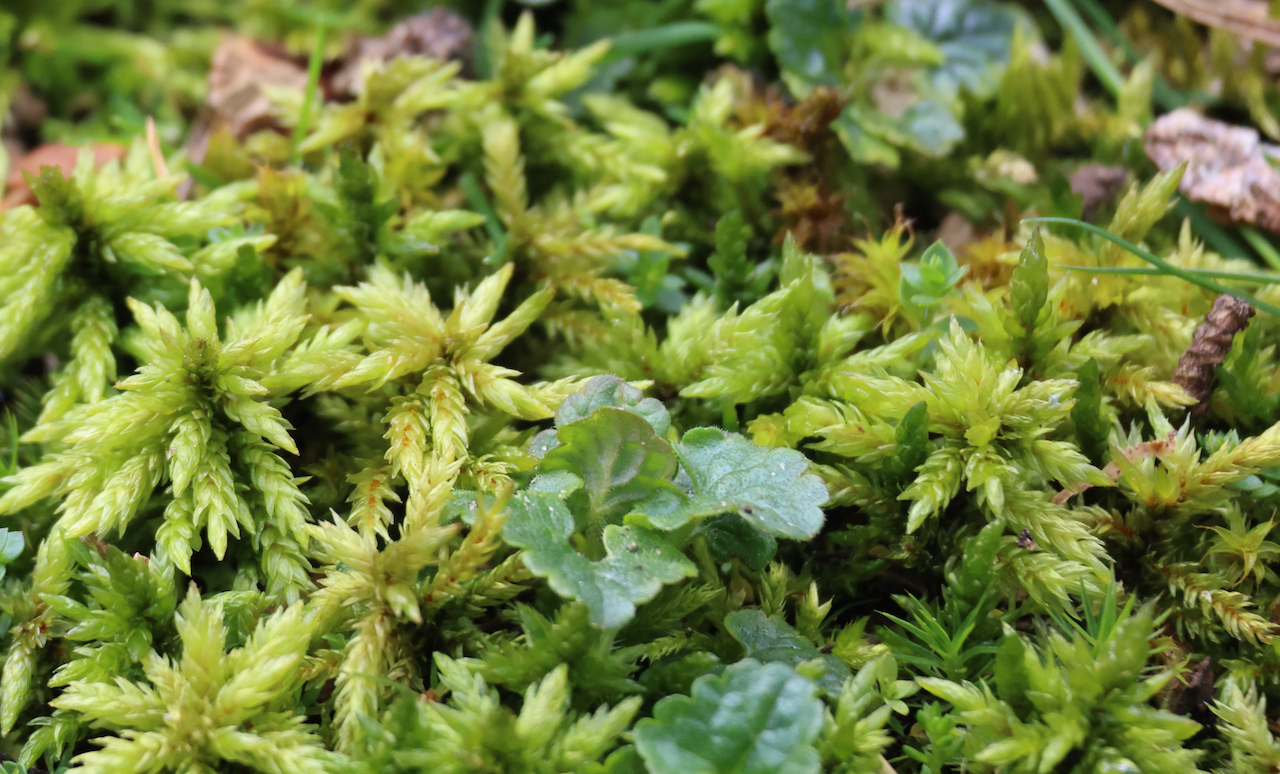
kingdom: Plantae
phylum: Bryophyta
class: Bryopsida
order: Hypnales
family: Climaciaceae
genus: Climacium
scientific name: Climacium dendroides
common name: Northern tree moss
